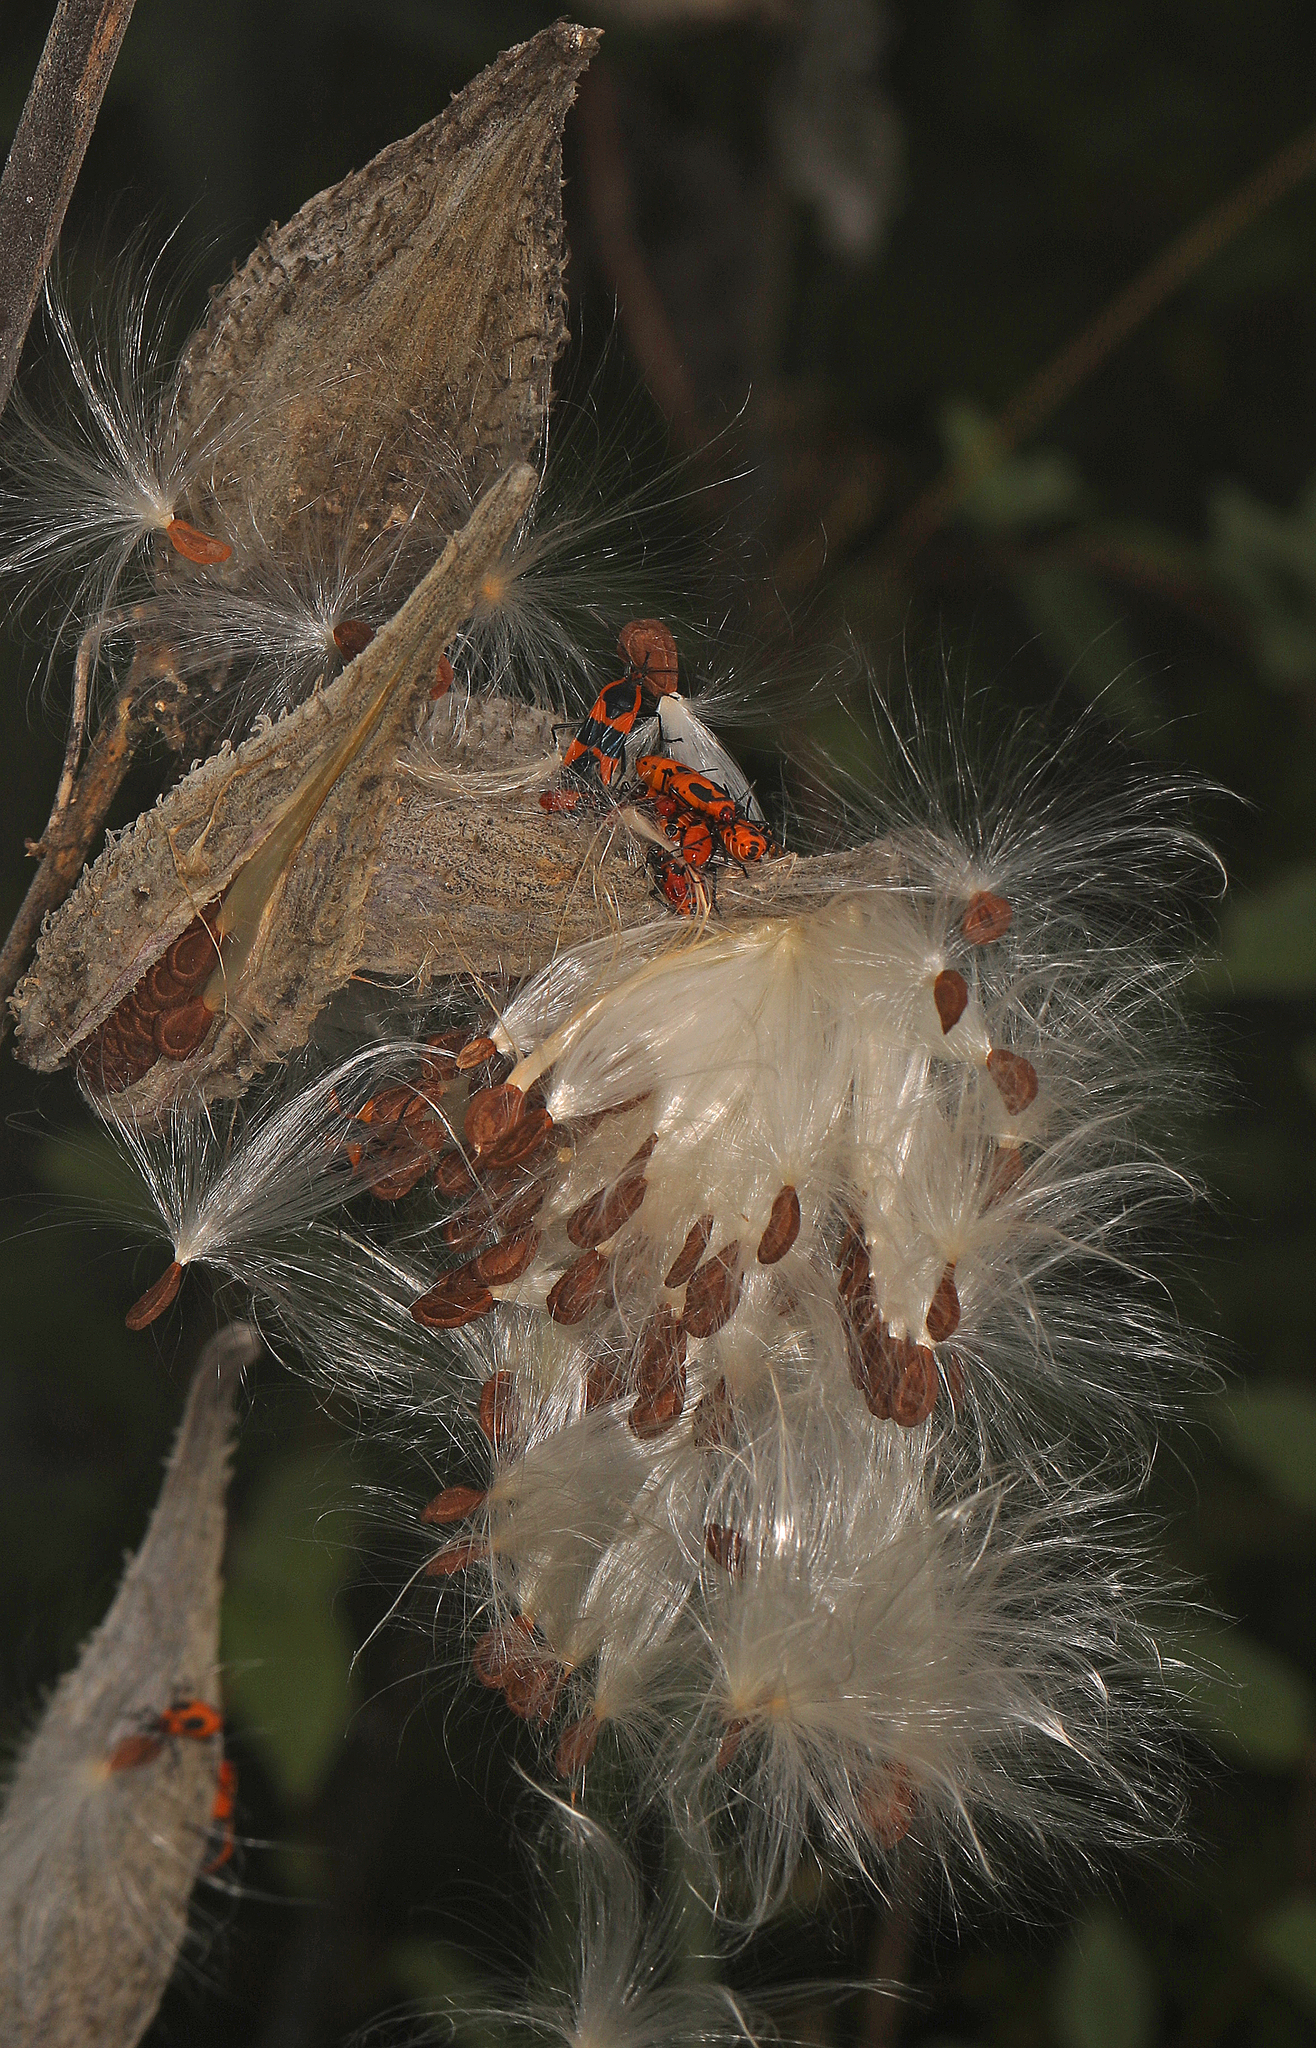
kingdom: Animalia
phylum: Arthropoda
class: Insecta
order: Hemiptera
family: Lygaeidae
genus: Oncopeltus
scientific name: Oncopeltus fasciatus
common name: Large milkweed bug
